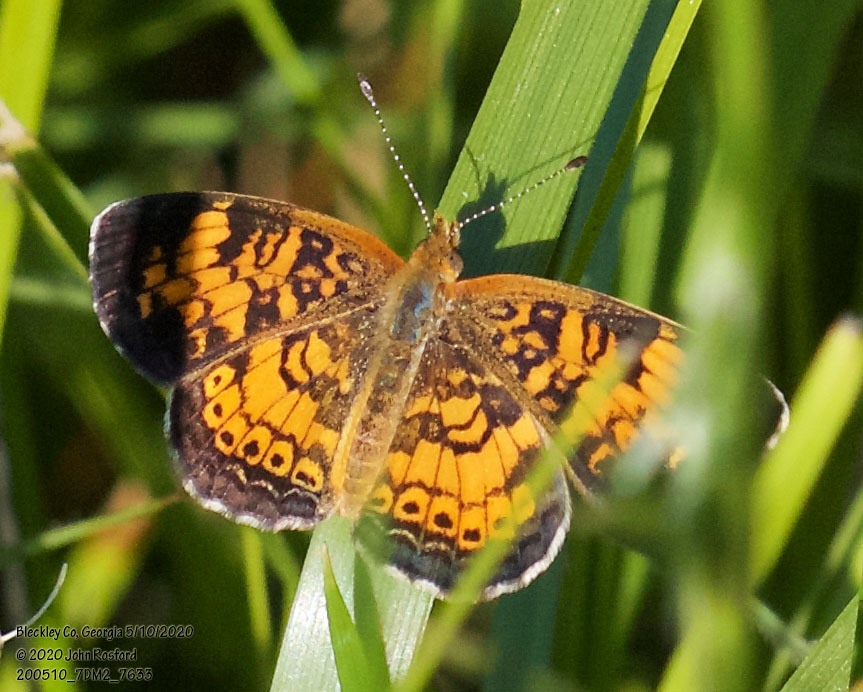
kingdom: Animalia
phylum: Arthropoda
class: Insecta
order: Lepidoptera
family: Nymphalidae
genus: Phyciodes
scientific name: Phyciodes tharos
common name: Pearl crescent
